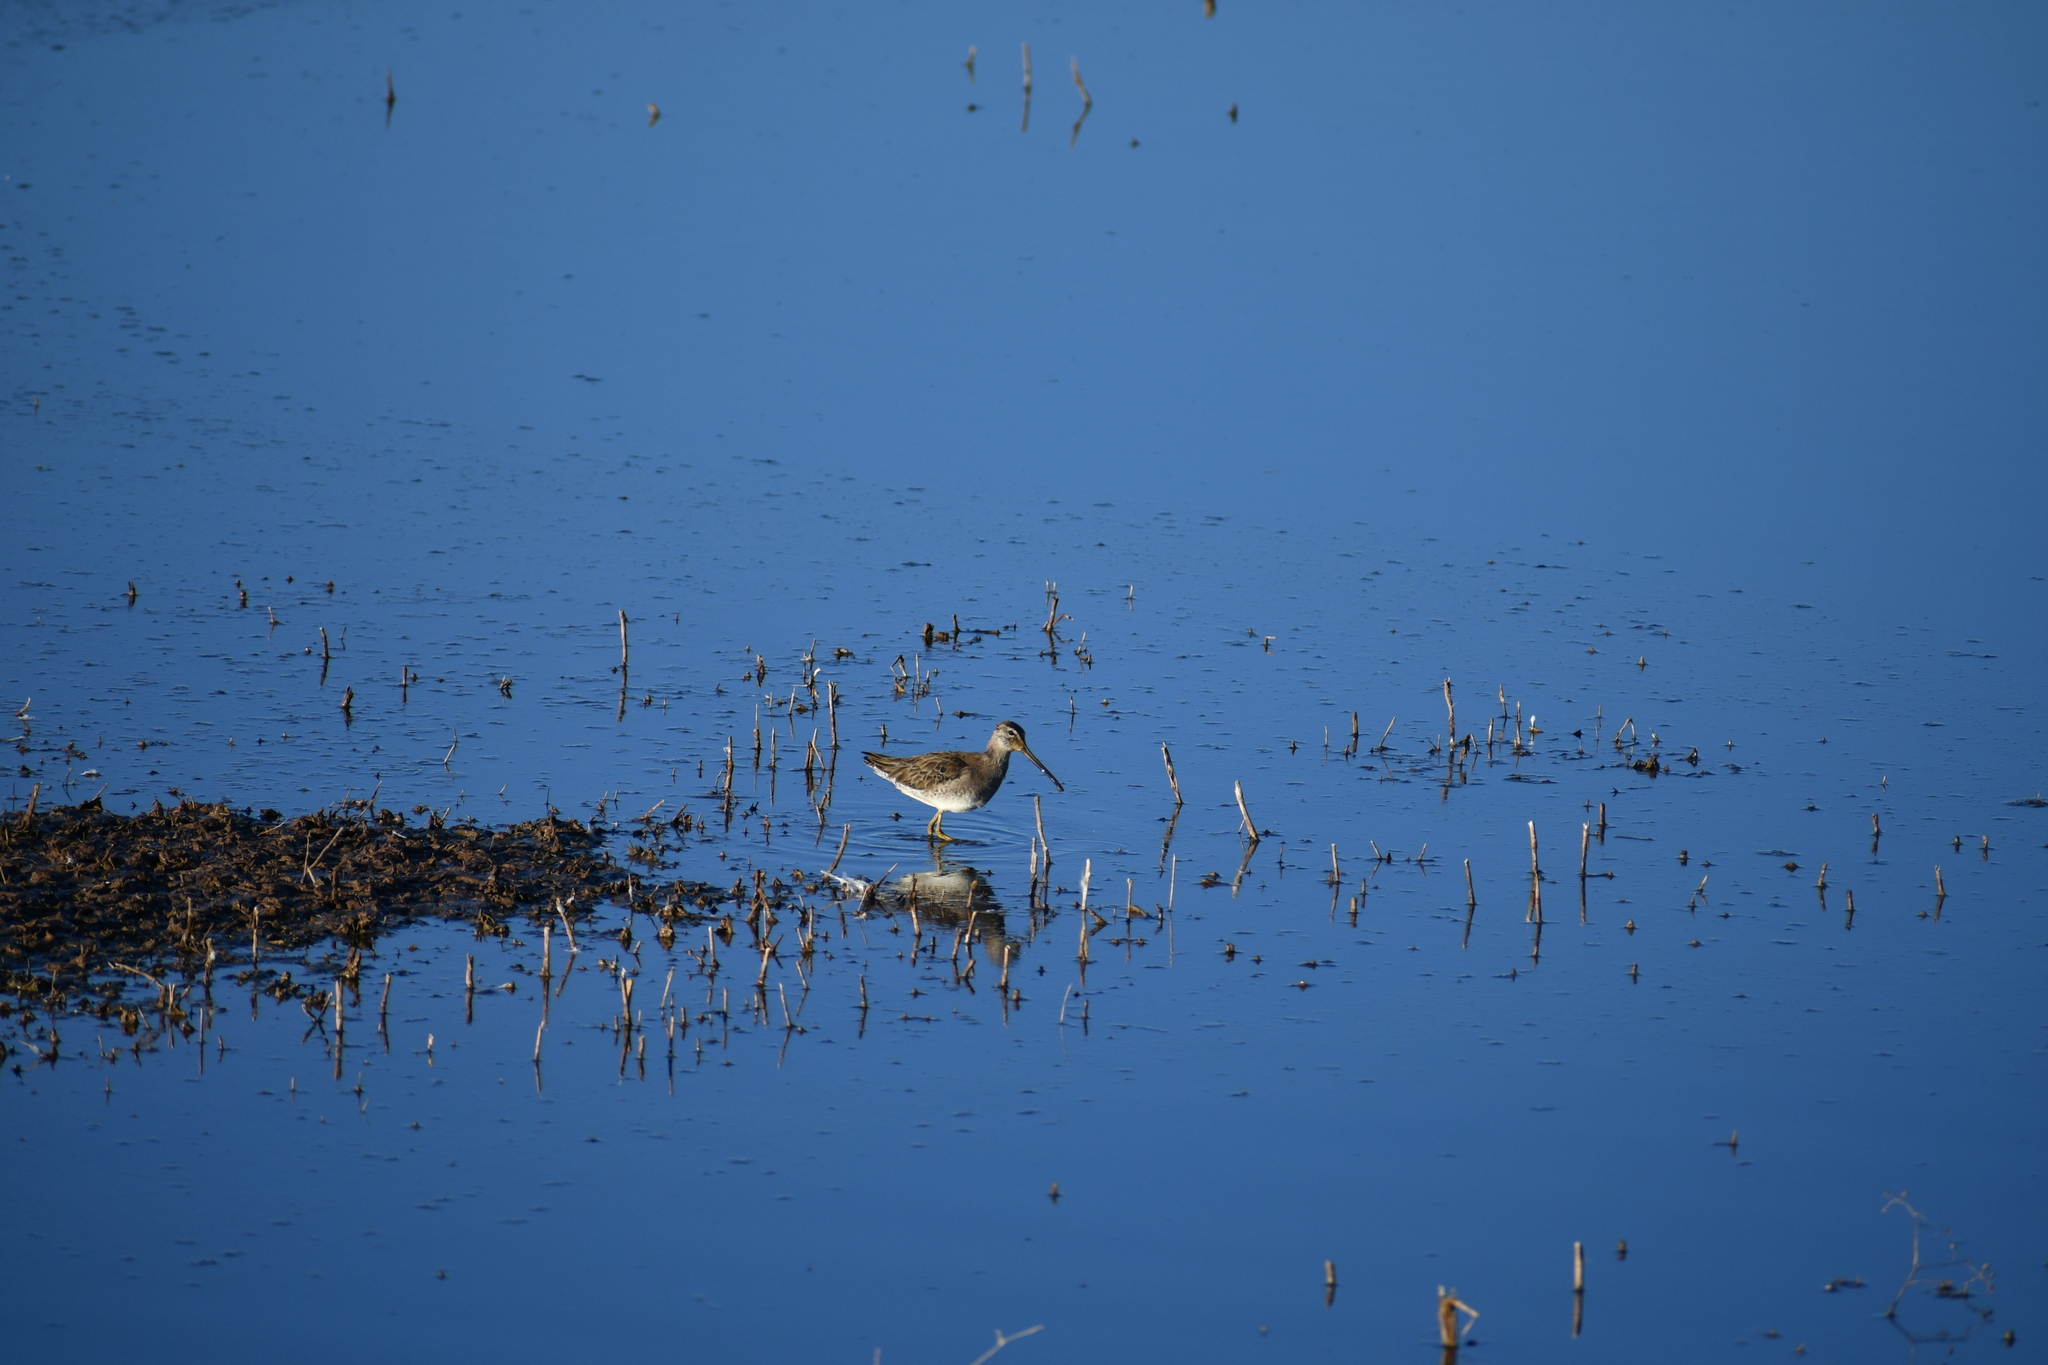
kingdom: Animalia
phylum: Chordata
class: Aves
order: Charadriiformes
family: Scolopacidae
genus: Limnodromus
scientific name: Limnodromus scolopaceus
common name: Long-billed dowitcher
